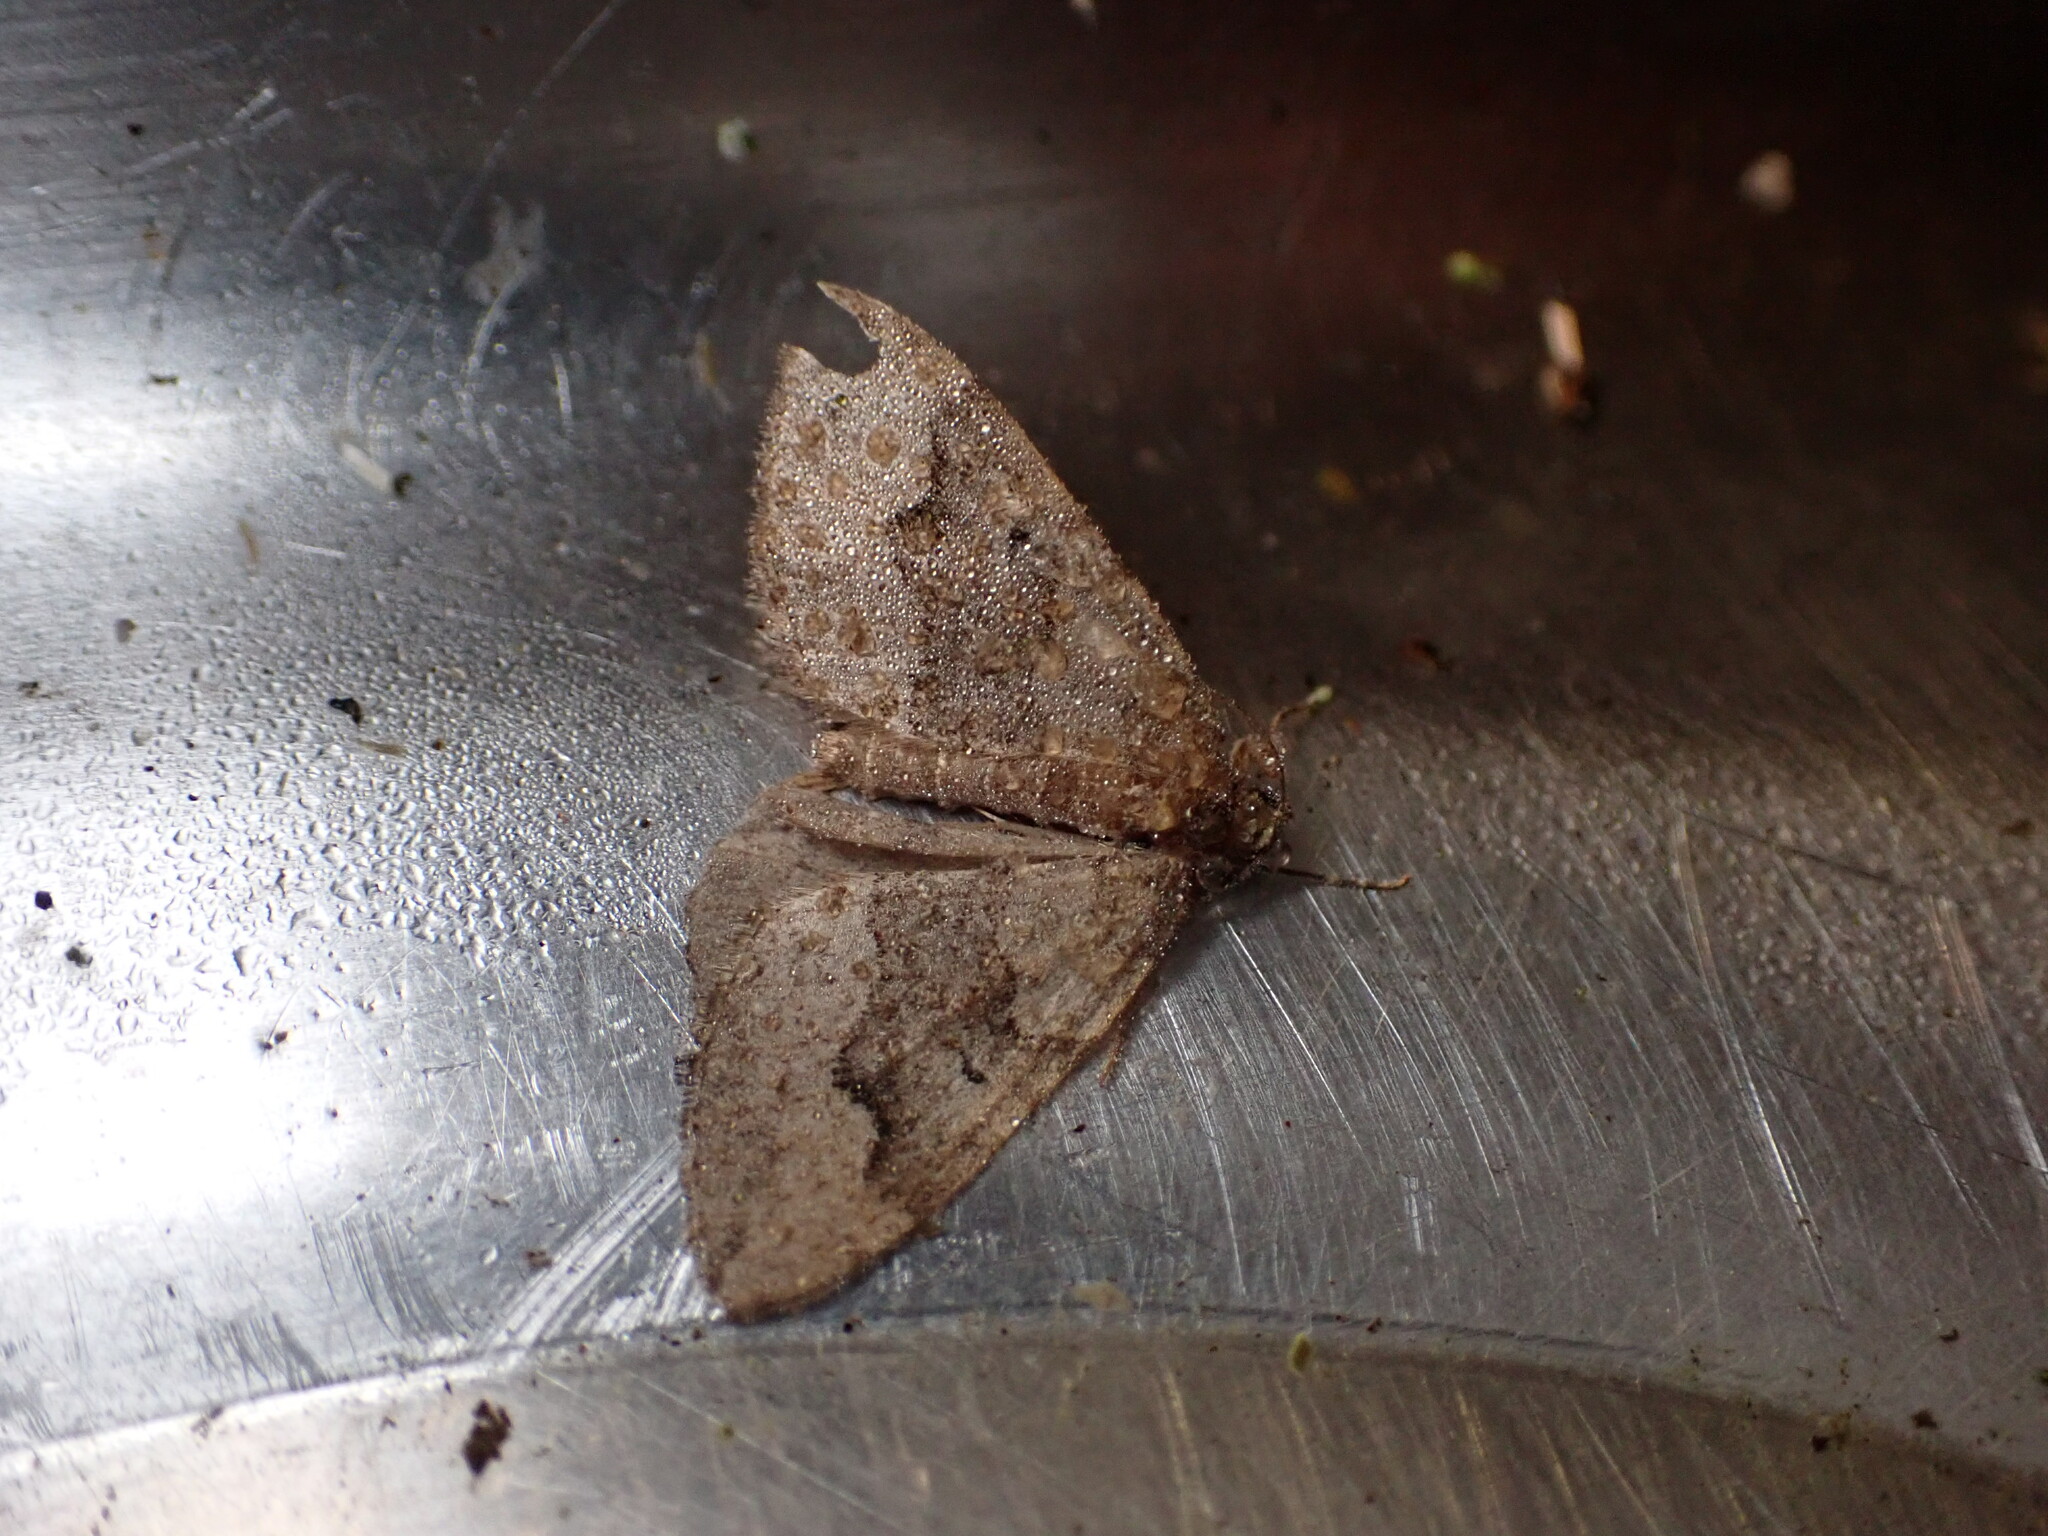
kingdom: Animalia
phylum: Arthropoda
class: Insecta
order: Lepidoptera
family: Geometridae
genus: Epyaxa
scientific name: Epyaxa rosearia
